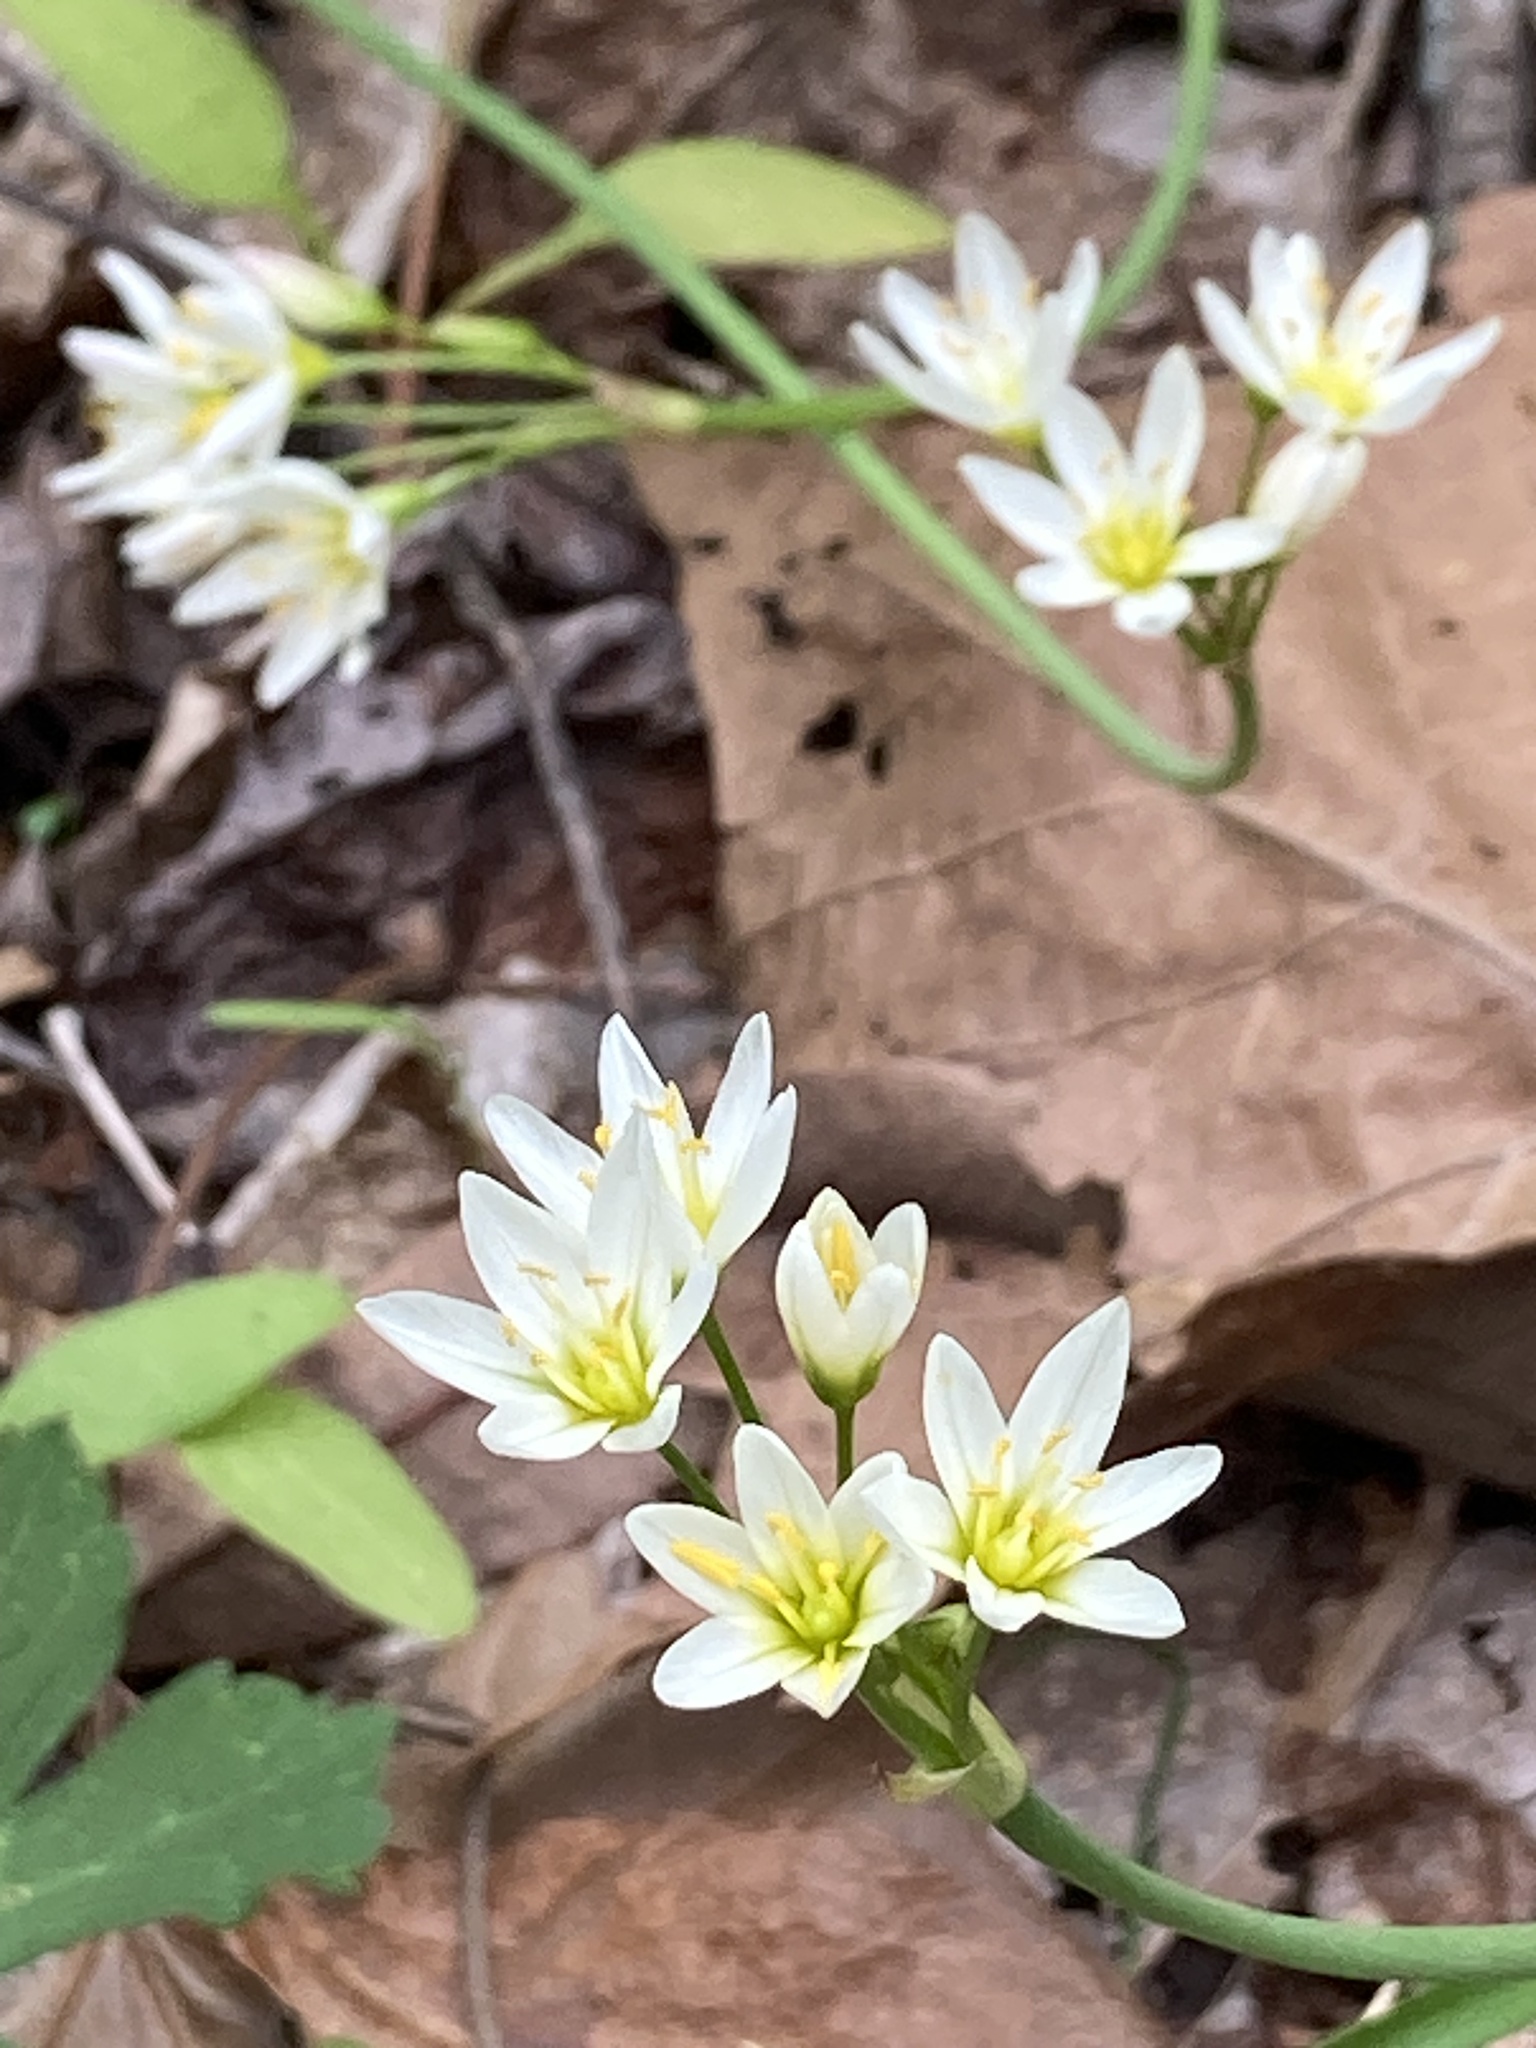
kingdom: Plantae
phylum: Tracheophyta
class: Liliopsida
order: Asparagales
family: Amaryllidaceae
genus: Nothoscordum
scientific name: Nothoscordum bivalve
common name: Crow-poison
